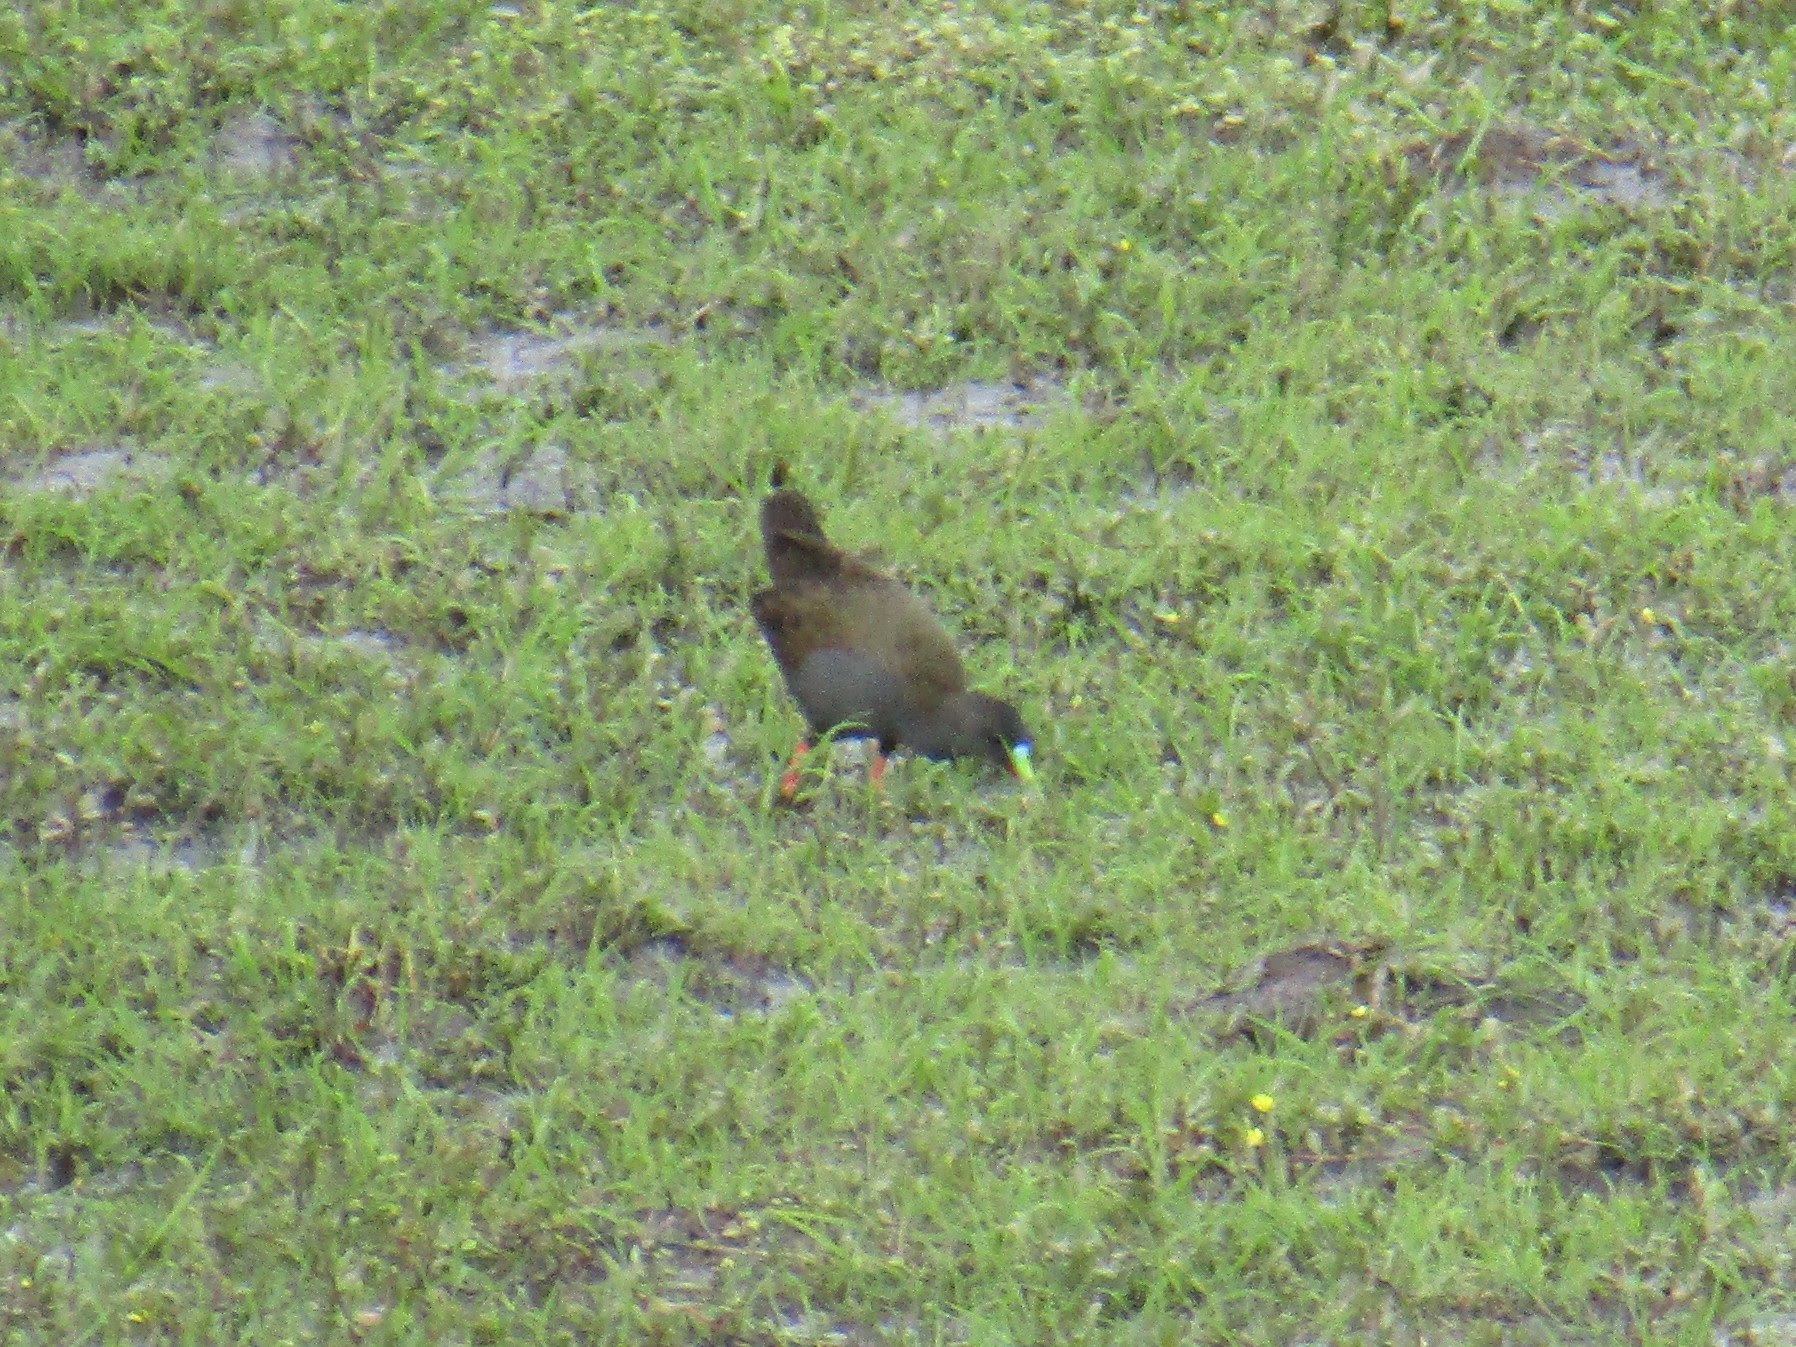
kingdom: Animalia
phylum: Chordata
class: Aves
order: Gruiformes
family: Rallidae
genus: Pardirallus
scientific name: Pardirallus sanguinolentus
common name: Plumbeous rail
